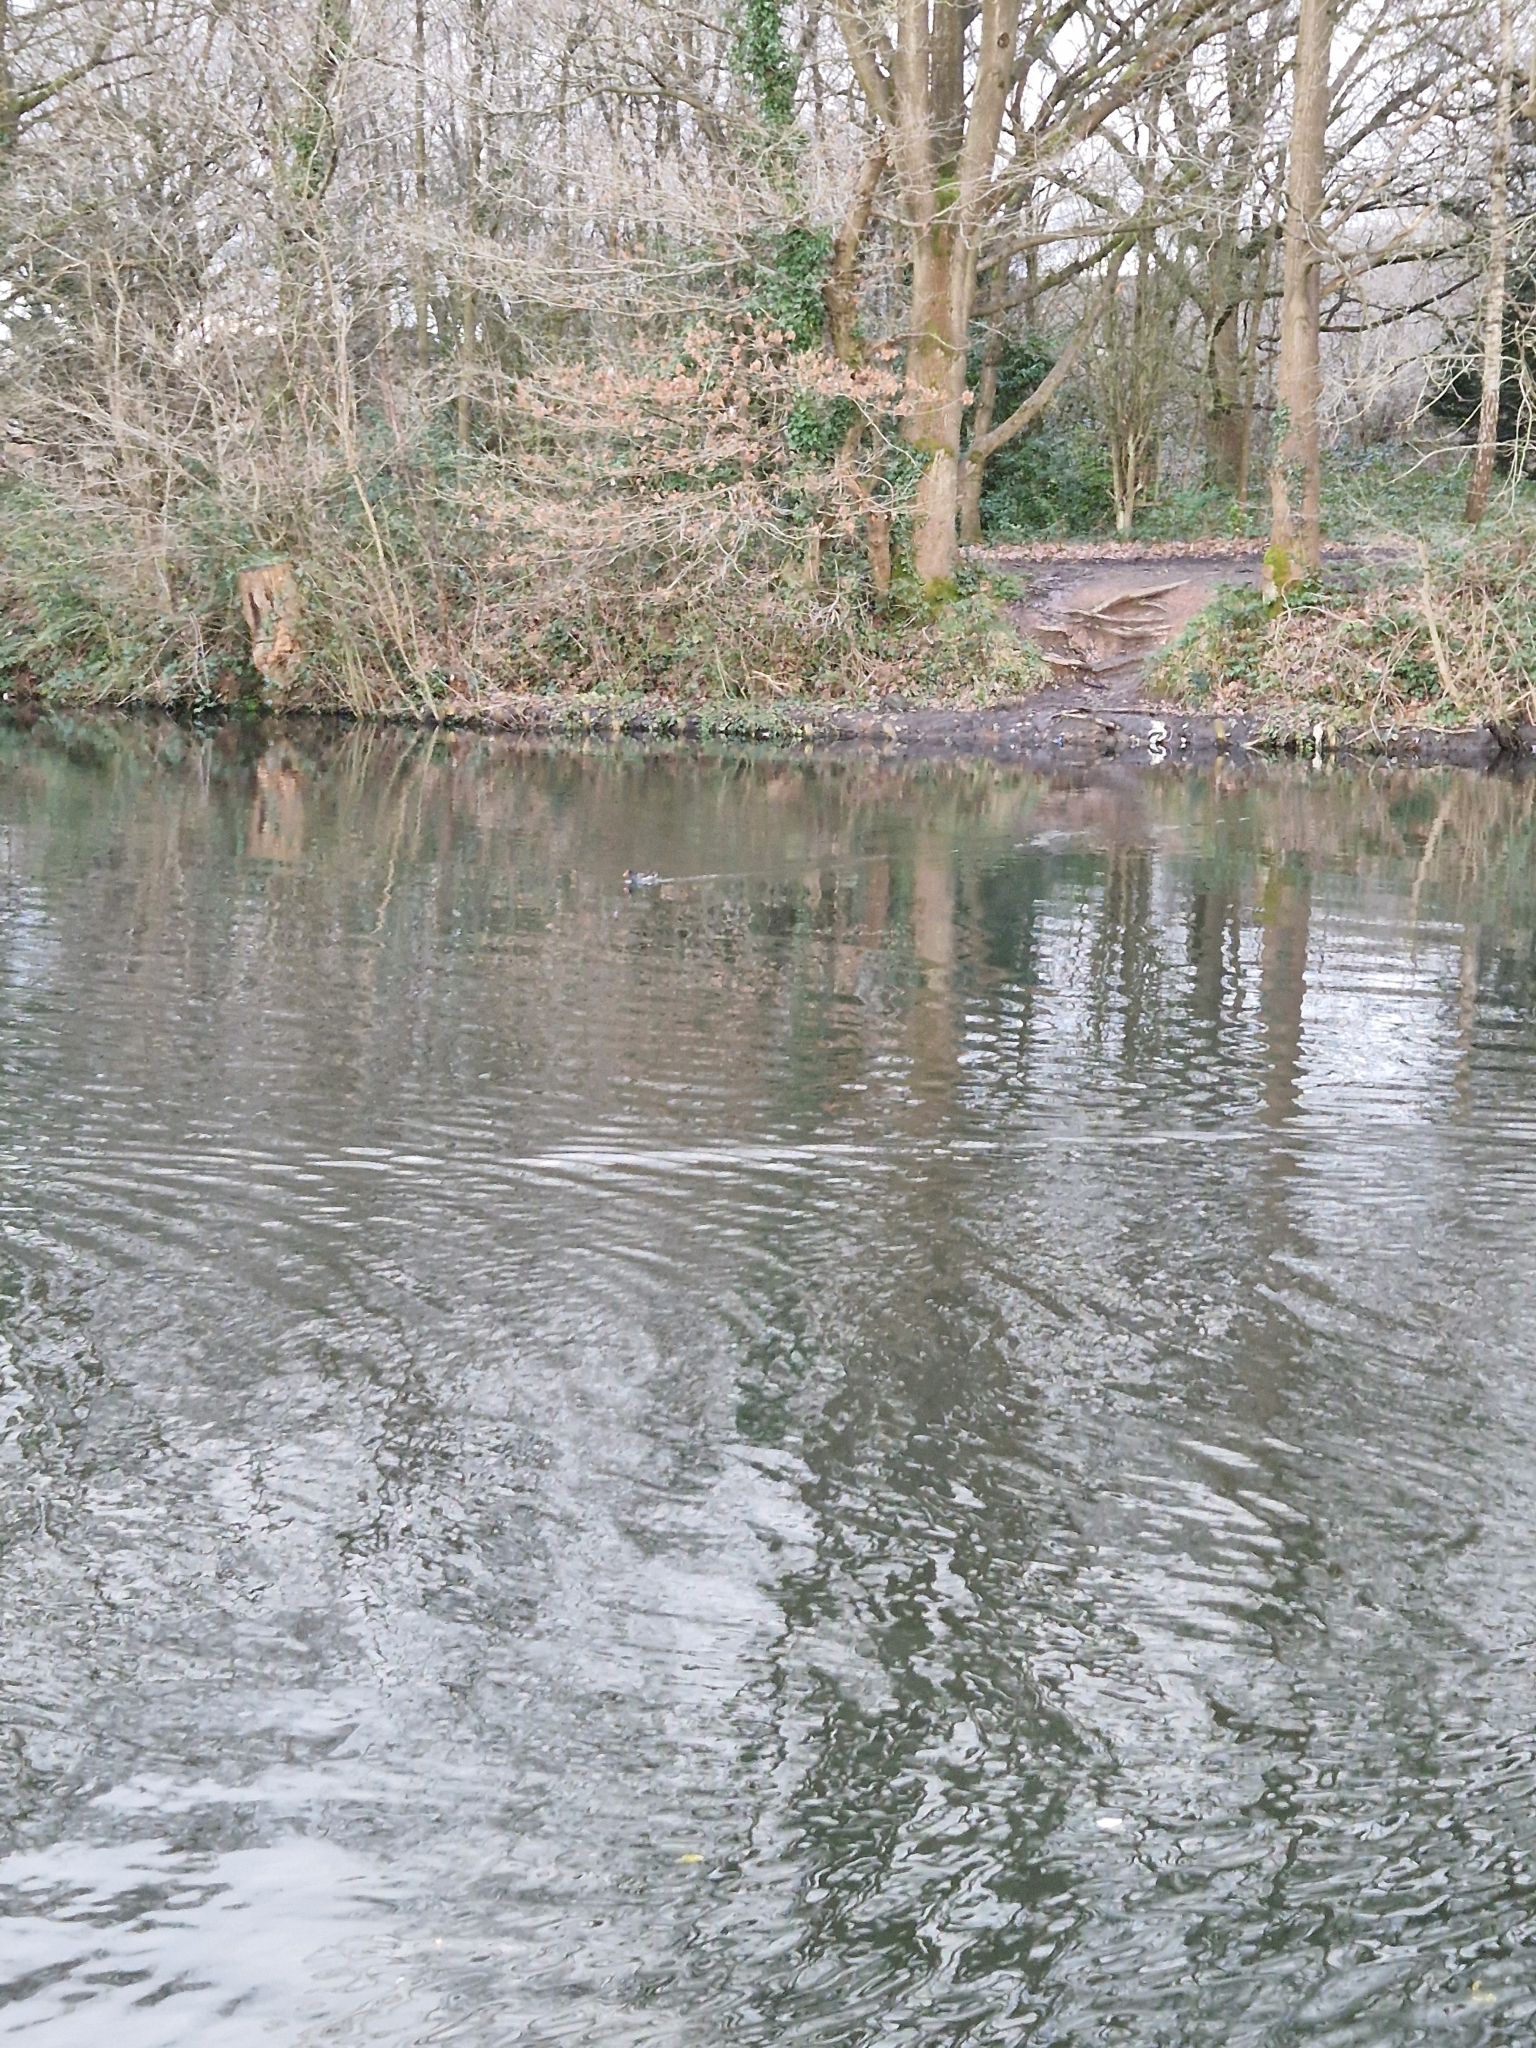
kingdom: Animalia
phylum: Chordata
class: Aves
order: Gruiformes
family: Rallidae
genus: Gallinula
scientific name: Gallinula chloropus
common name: Common moorhen
